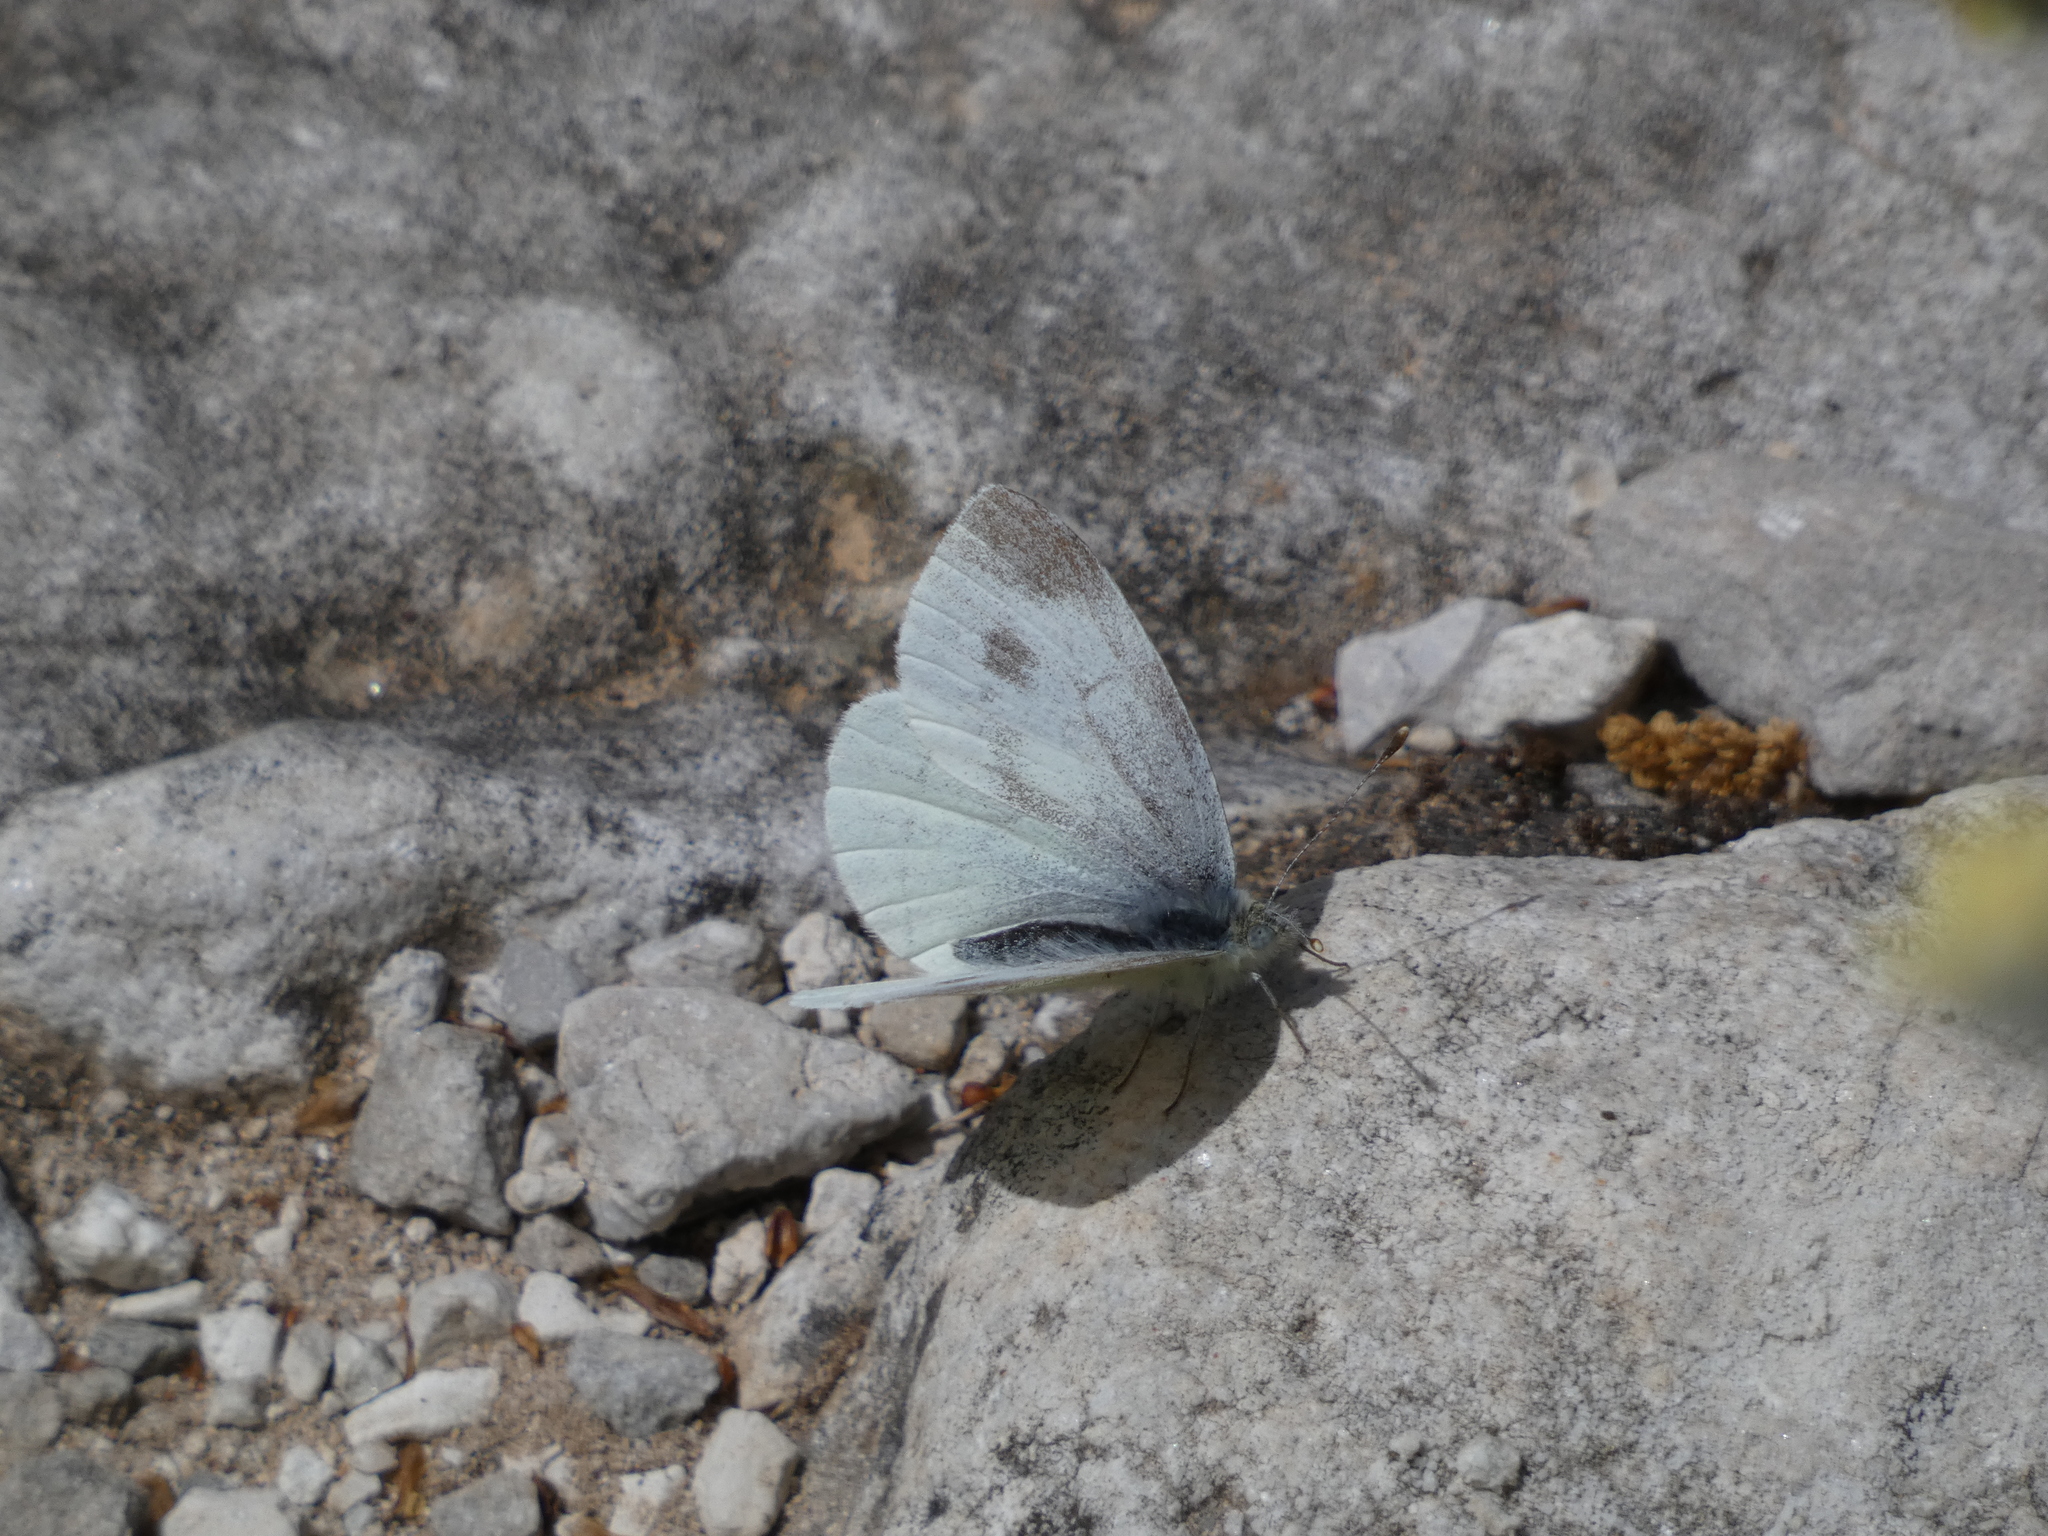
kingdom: Animalia
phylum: Arthropoda
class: Insecta
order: Lepidoptera
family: Pieridae
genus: Pieris
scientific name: Pieris ergane
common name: Mountain small white
